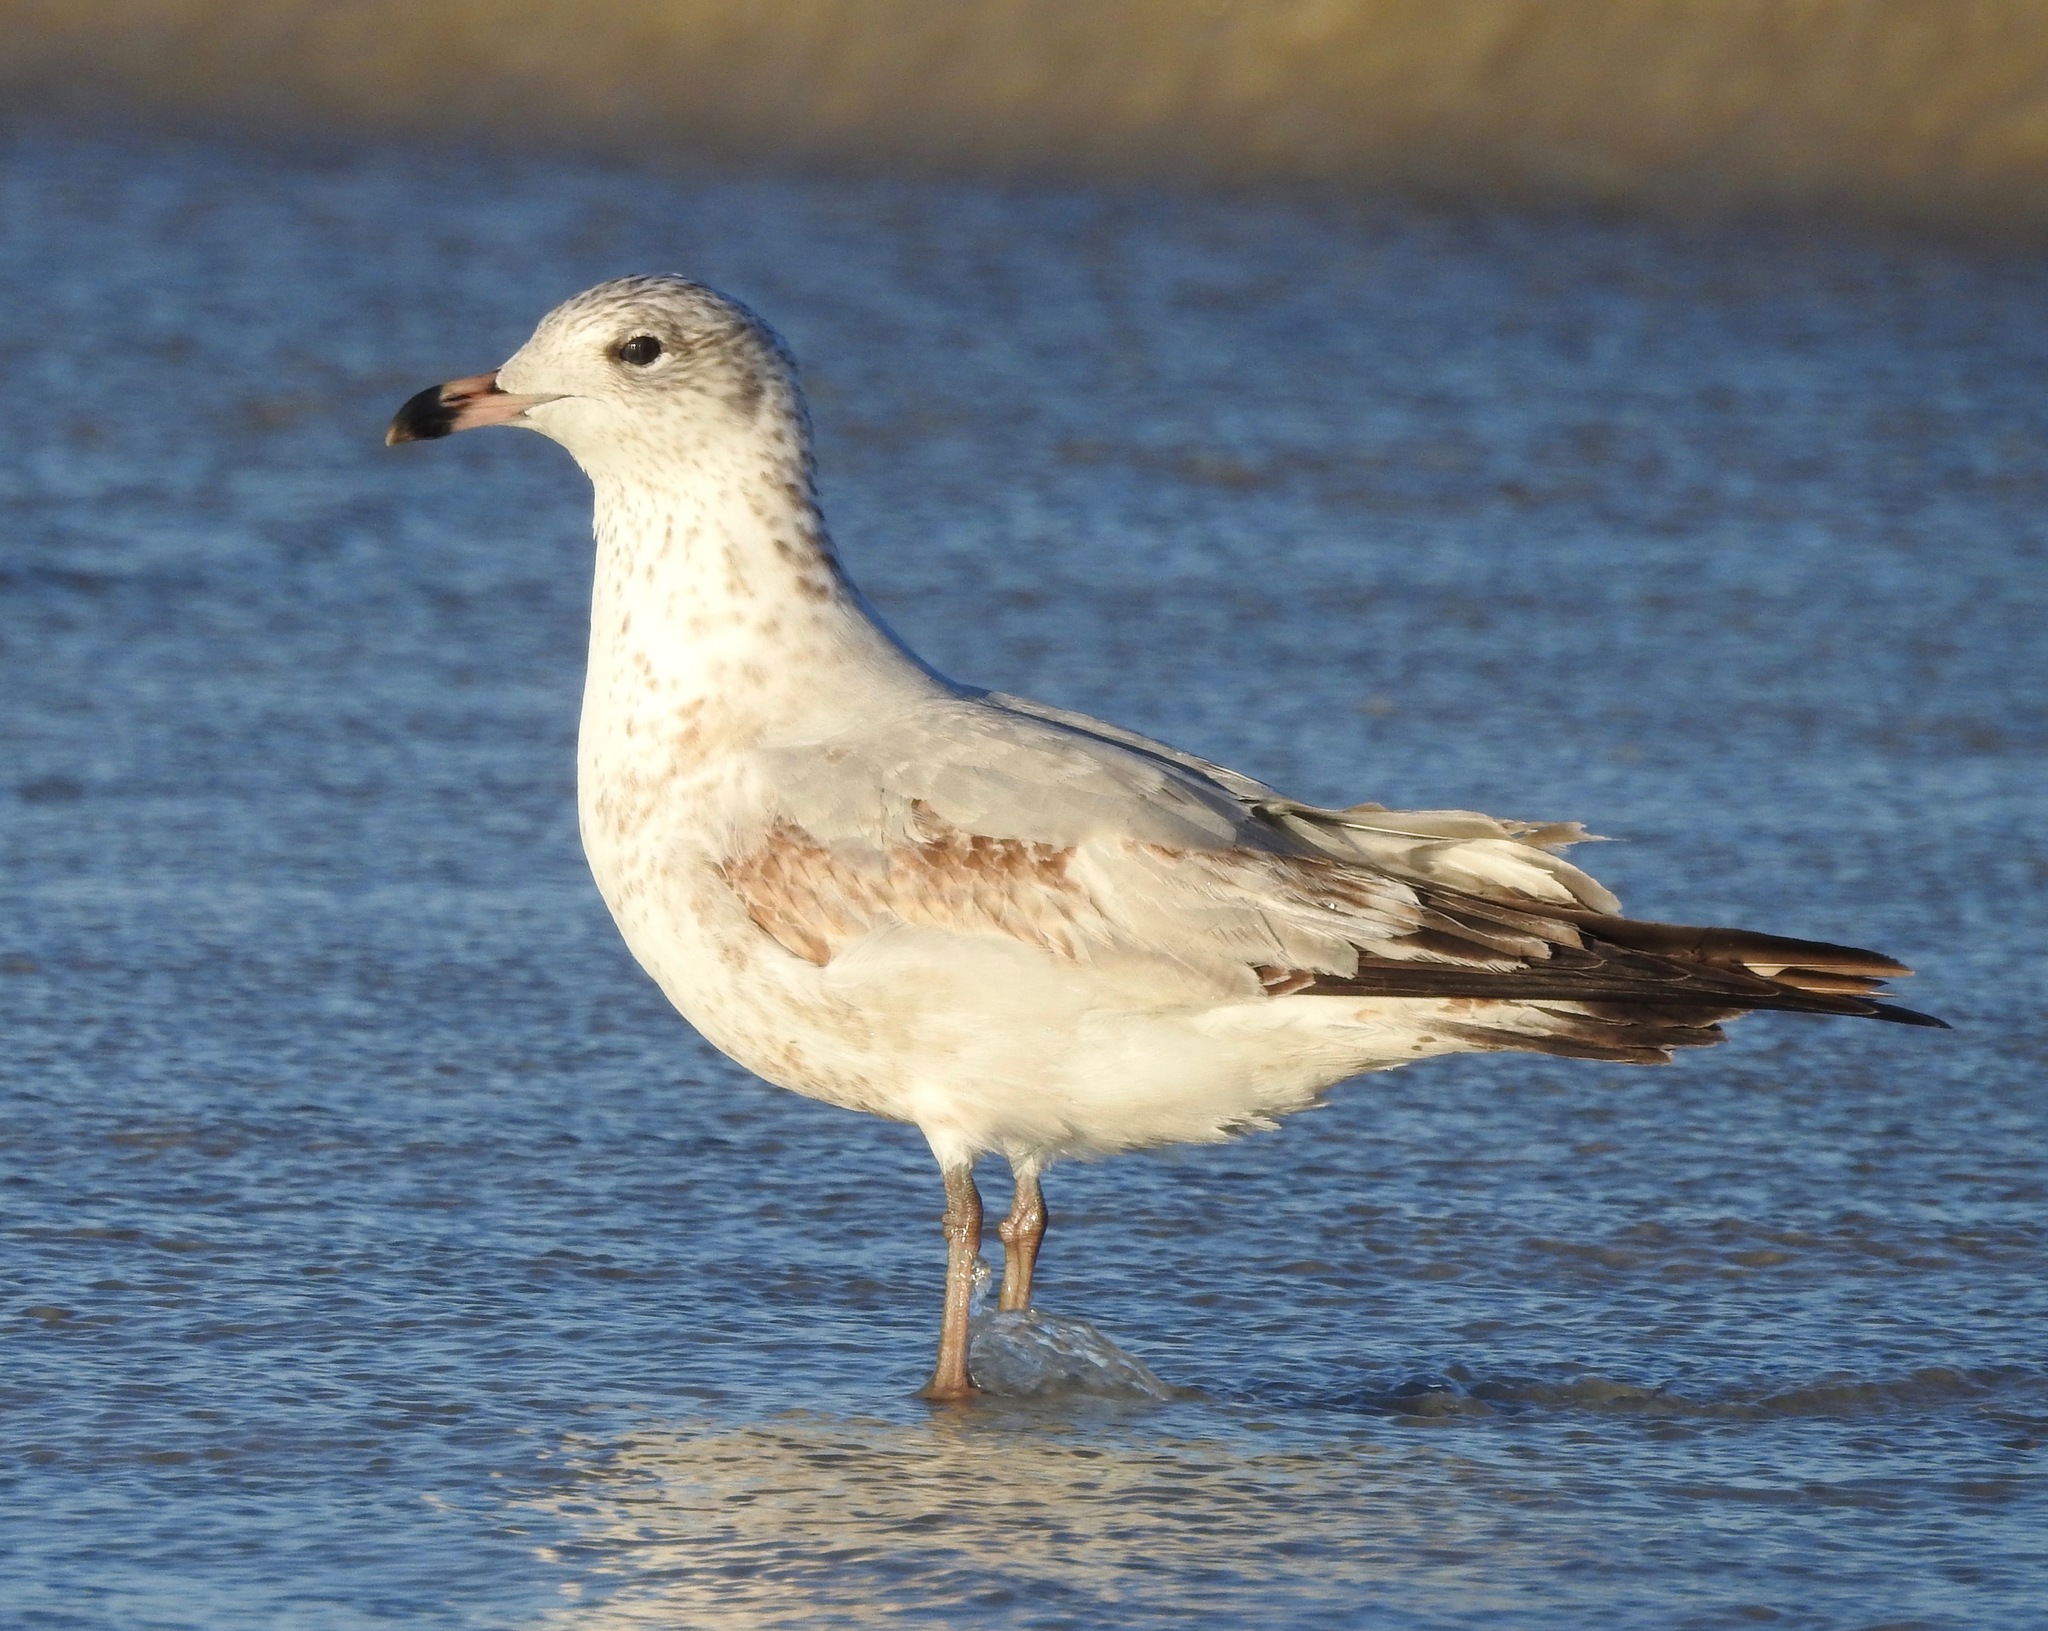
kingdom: Animalia
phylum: Chordata
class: Aves
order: Charadriiformes
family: Laridae
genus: Larus
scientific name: Larus delawarensis
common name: Ring-billed gull
